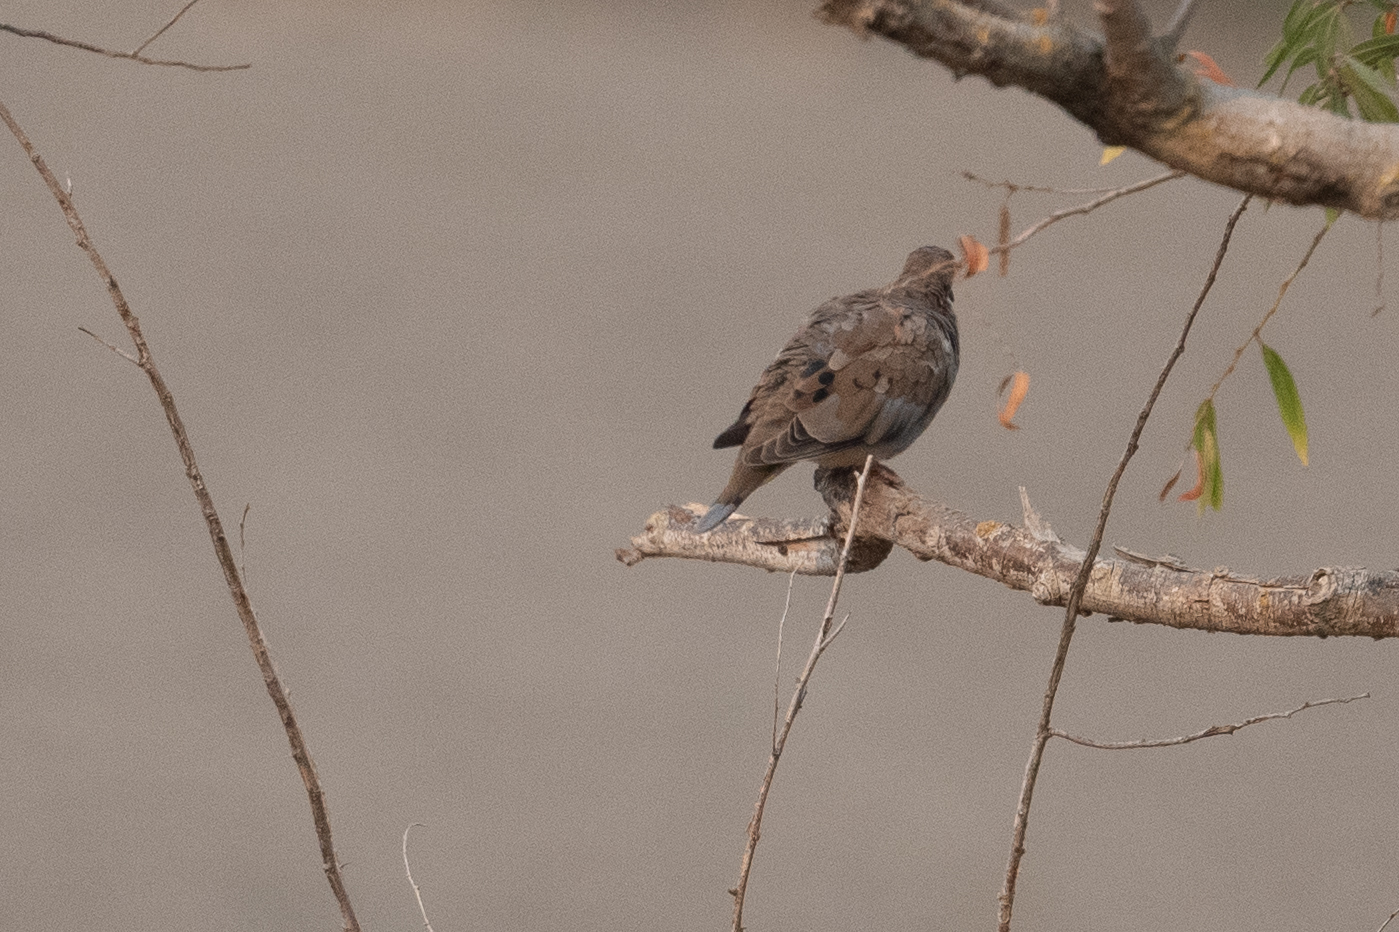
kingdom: Animalia
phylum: Chordata
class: Aves
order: Columbiformes
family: Columbidae
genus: Zenaida
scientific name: Zenaida macroura
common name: Mourning dove
